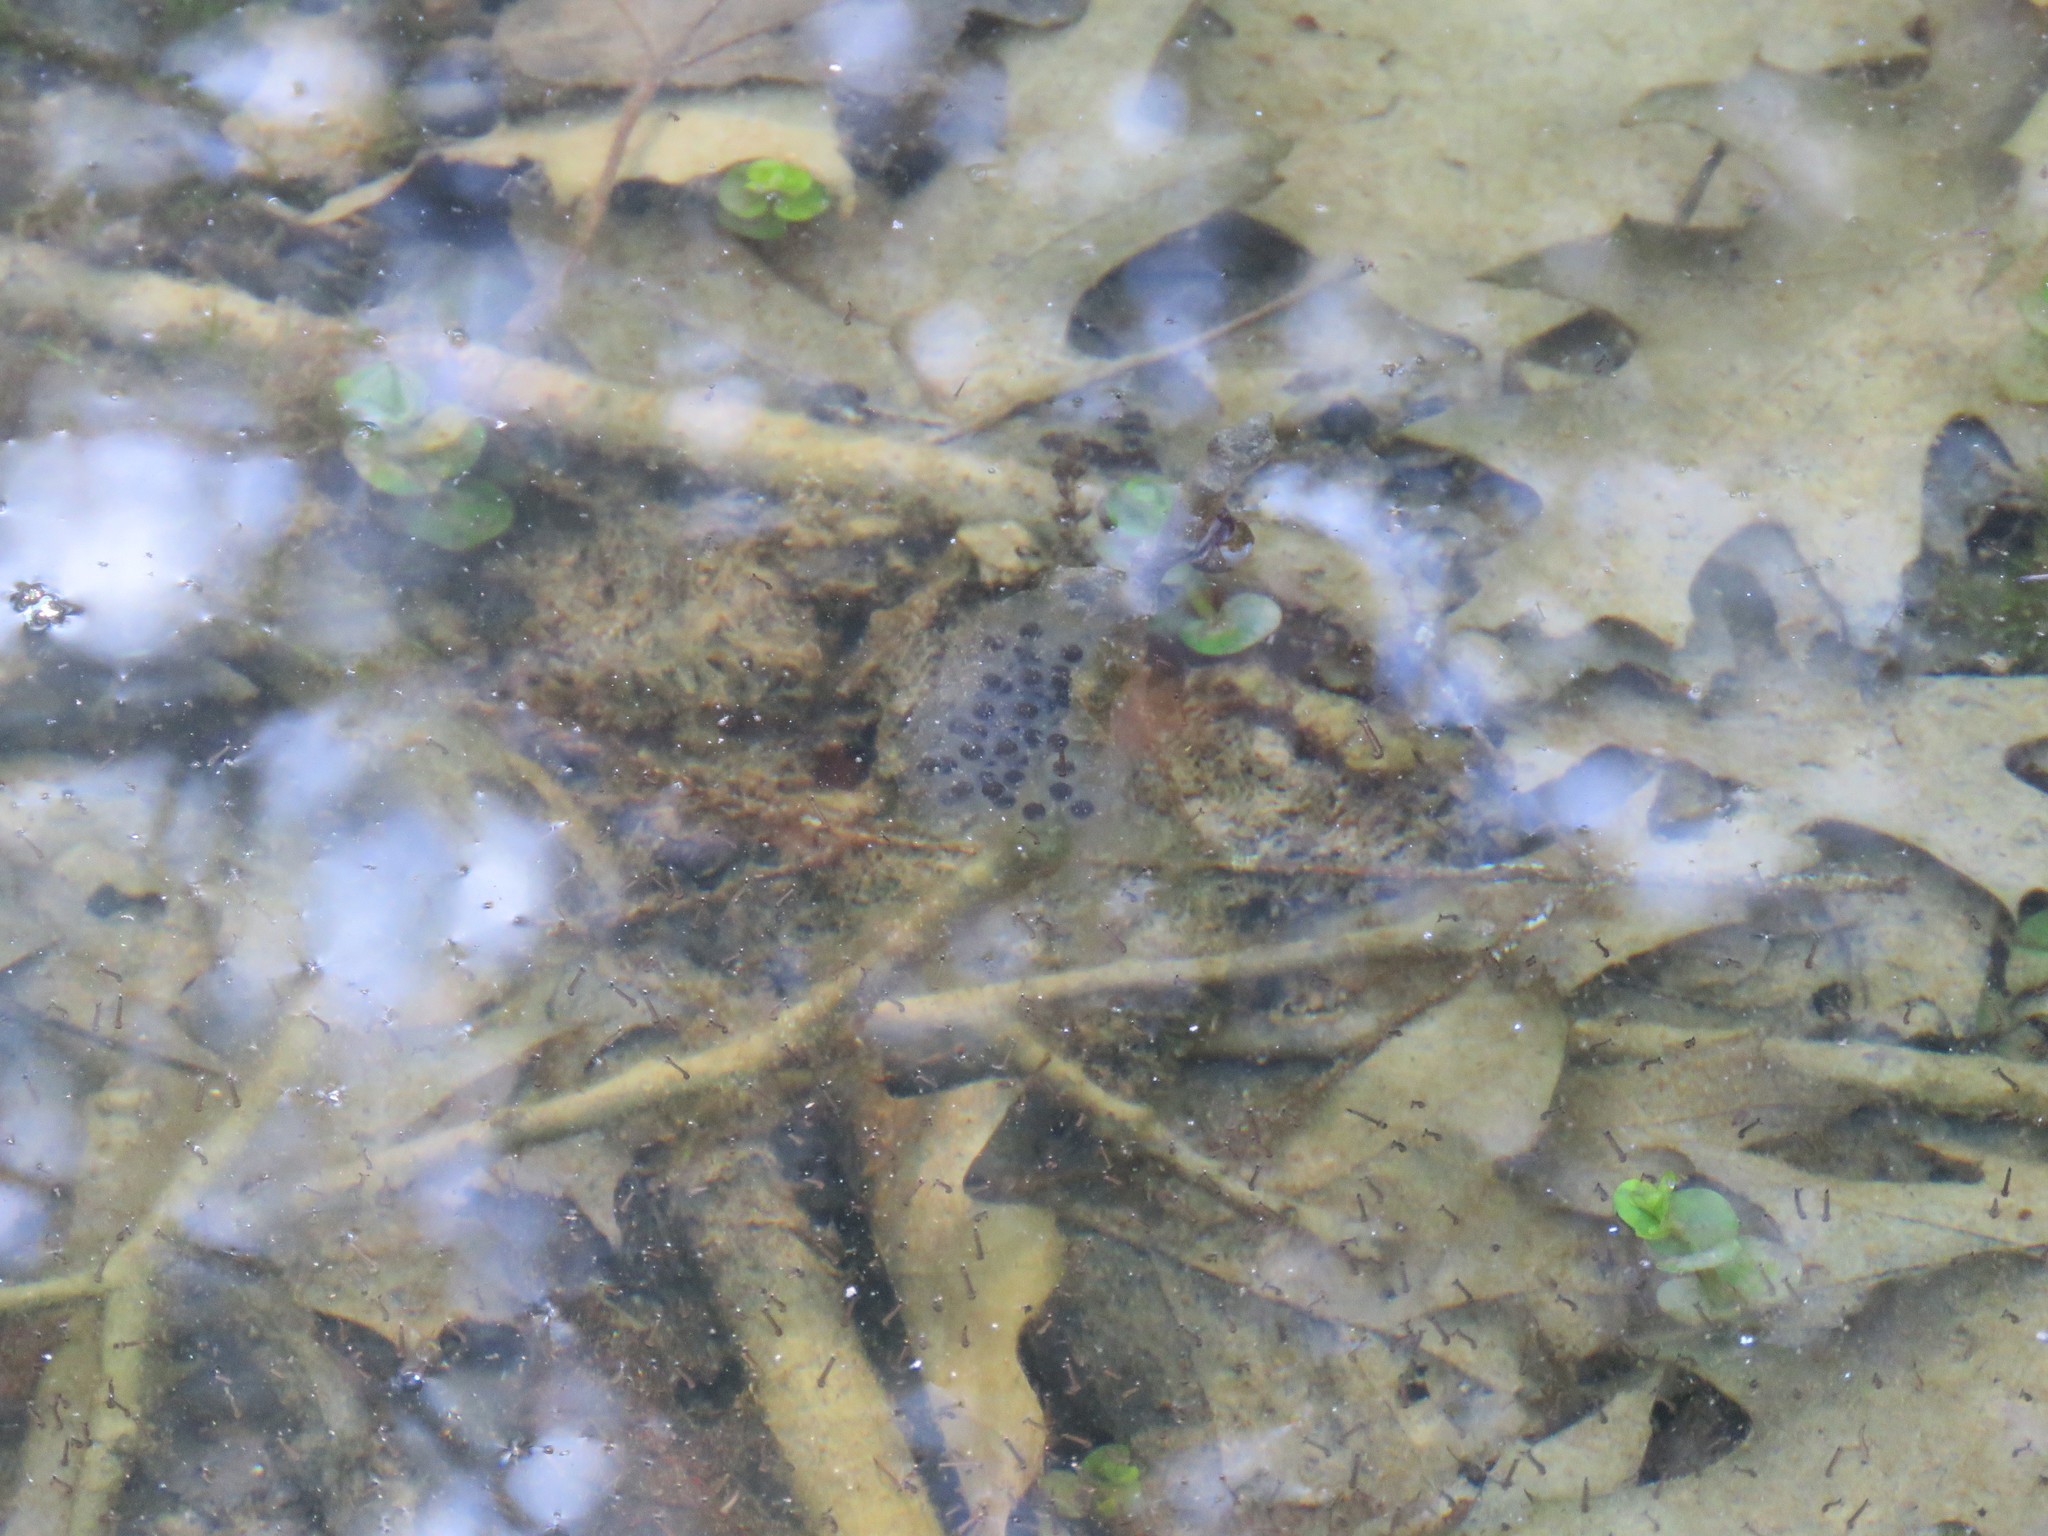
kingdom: Animalia
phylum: Chordata
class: Amphibia
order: Caudata
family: Ambystomatidae
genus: Ambystoma
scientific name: Ambystoma maculatum
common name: Spotted salamander
